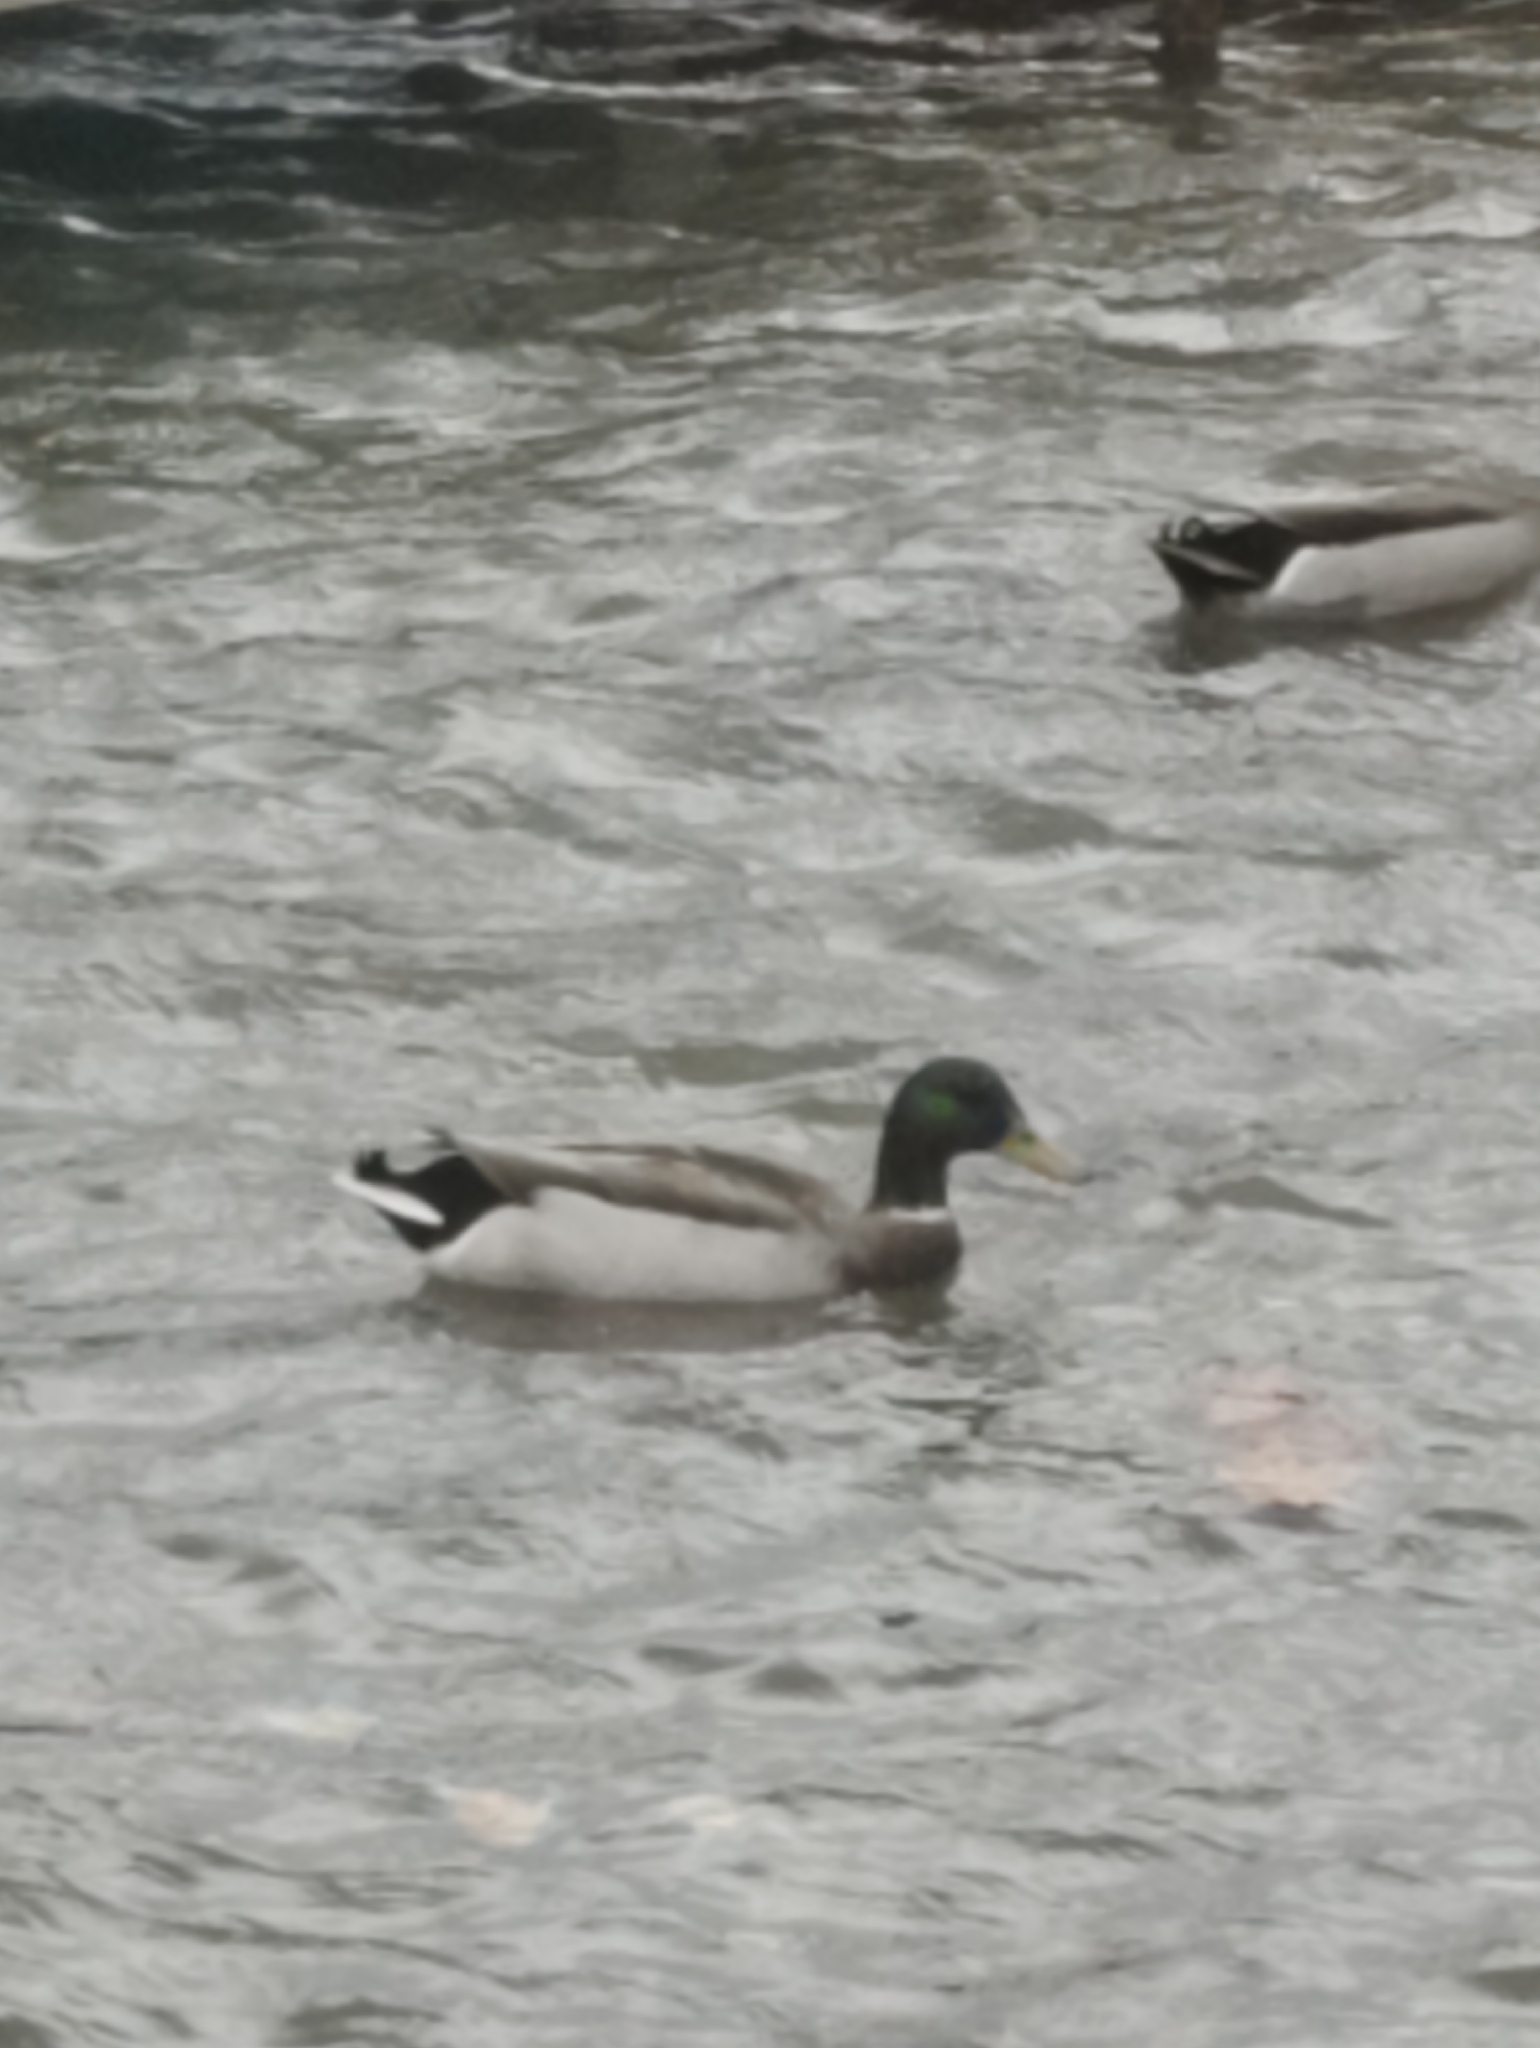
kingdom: Animalia
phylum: Chordata
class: Aves
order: Anseriformes
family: Anatidae
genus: Anas
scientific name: Anas platyrhynchos
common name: Mallard
